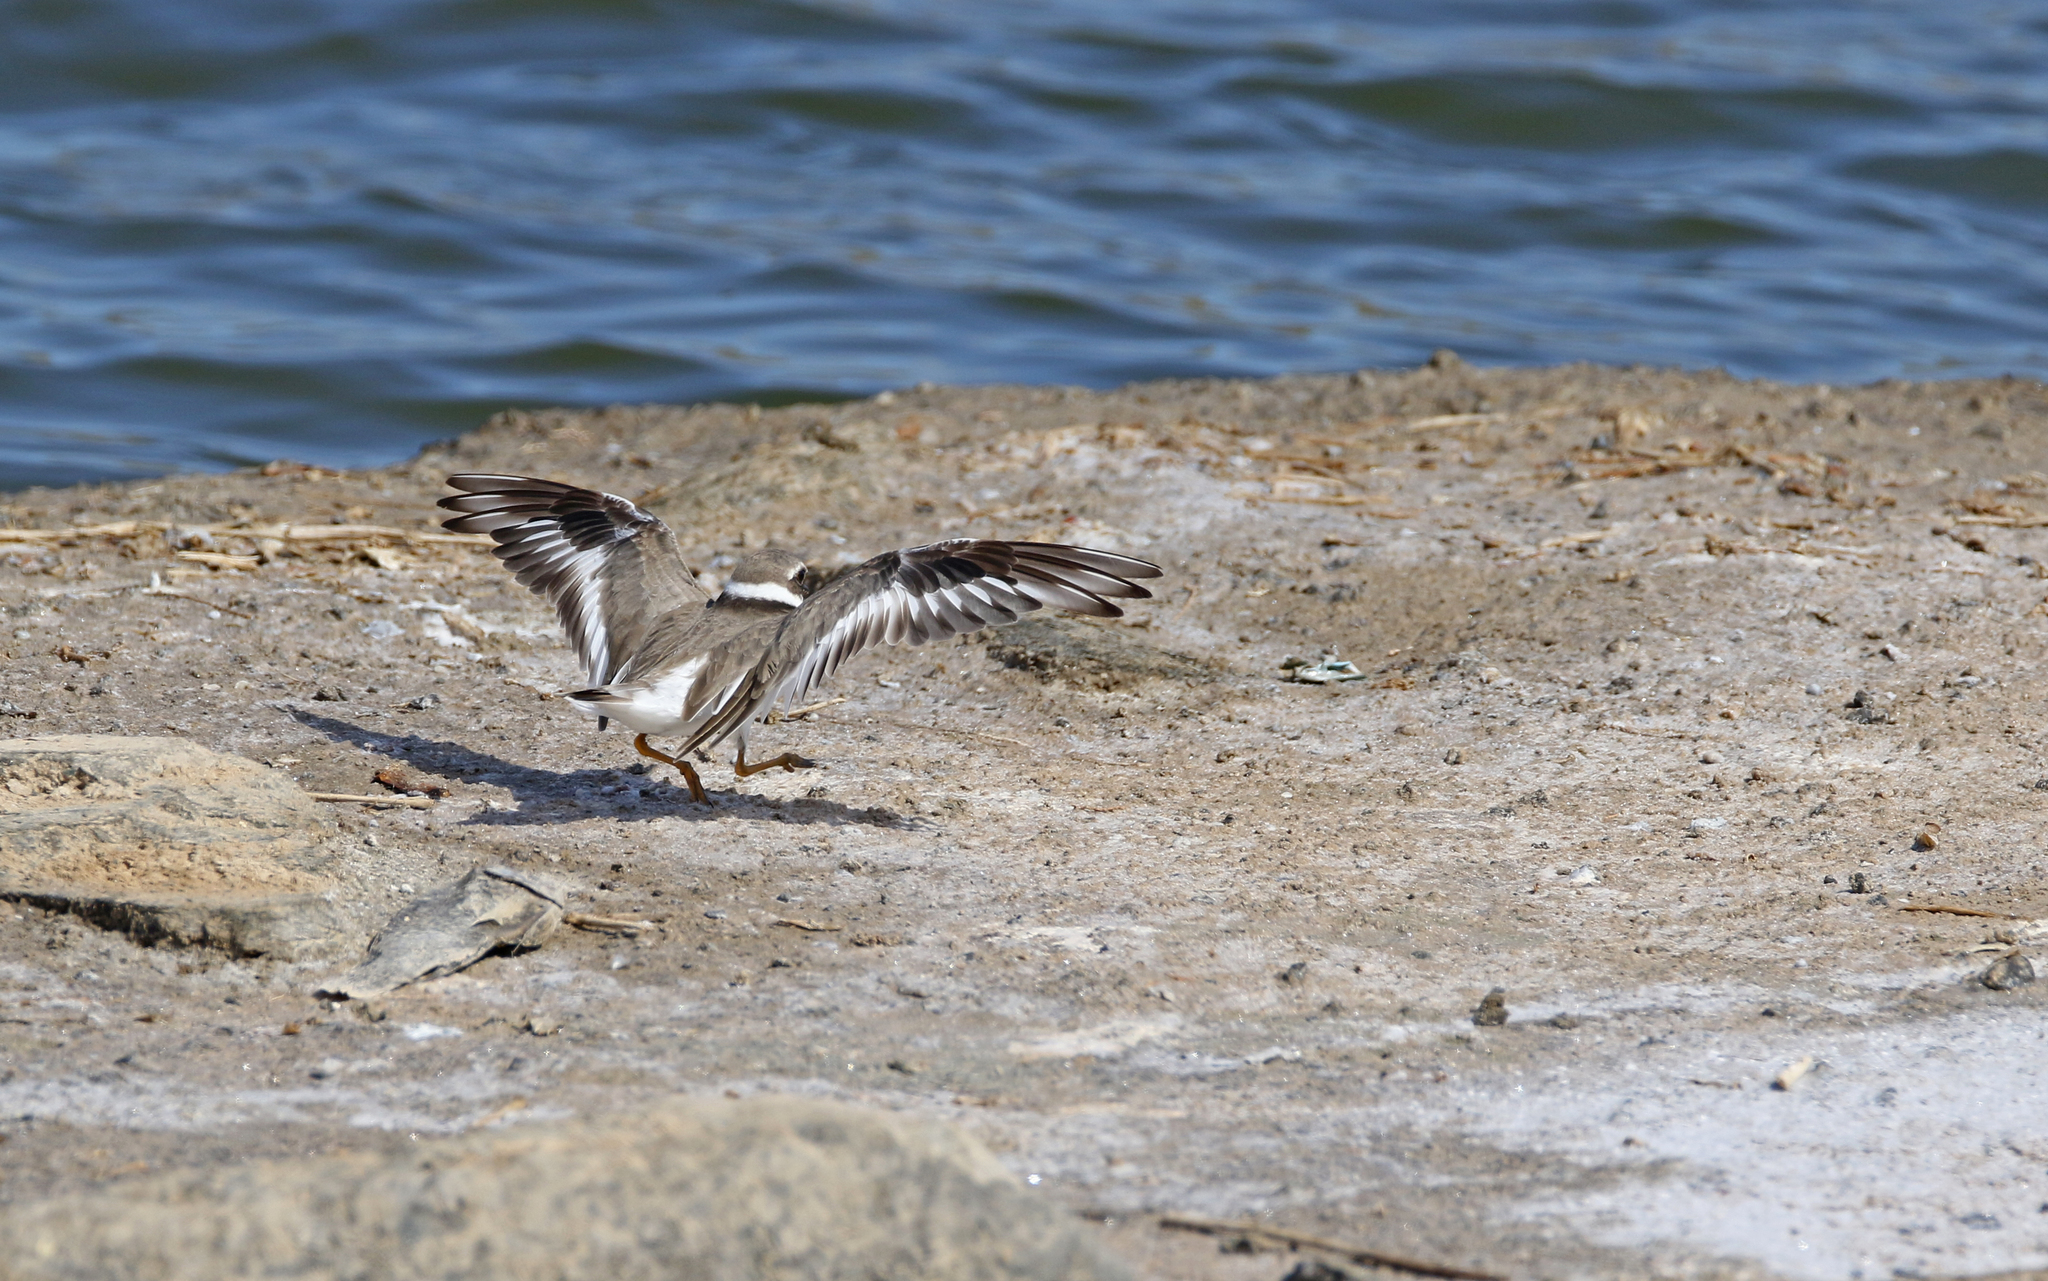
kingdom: Animalia
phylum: Chordata
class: Aves
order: Charadriiformes
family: Charadriidae
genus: Charadrius
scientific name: Charadrius hiaticula
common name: Common ringed plover
